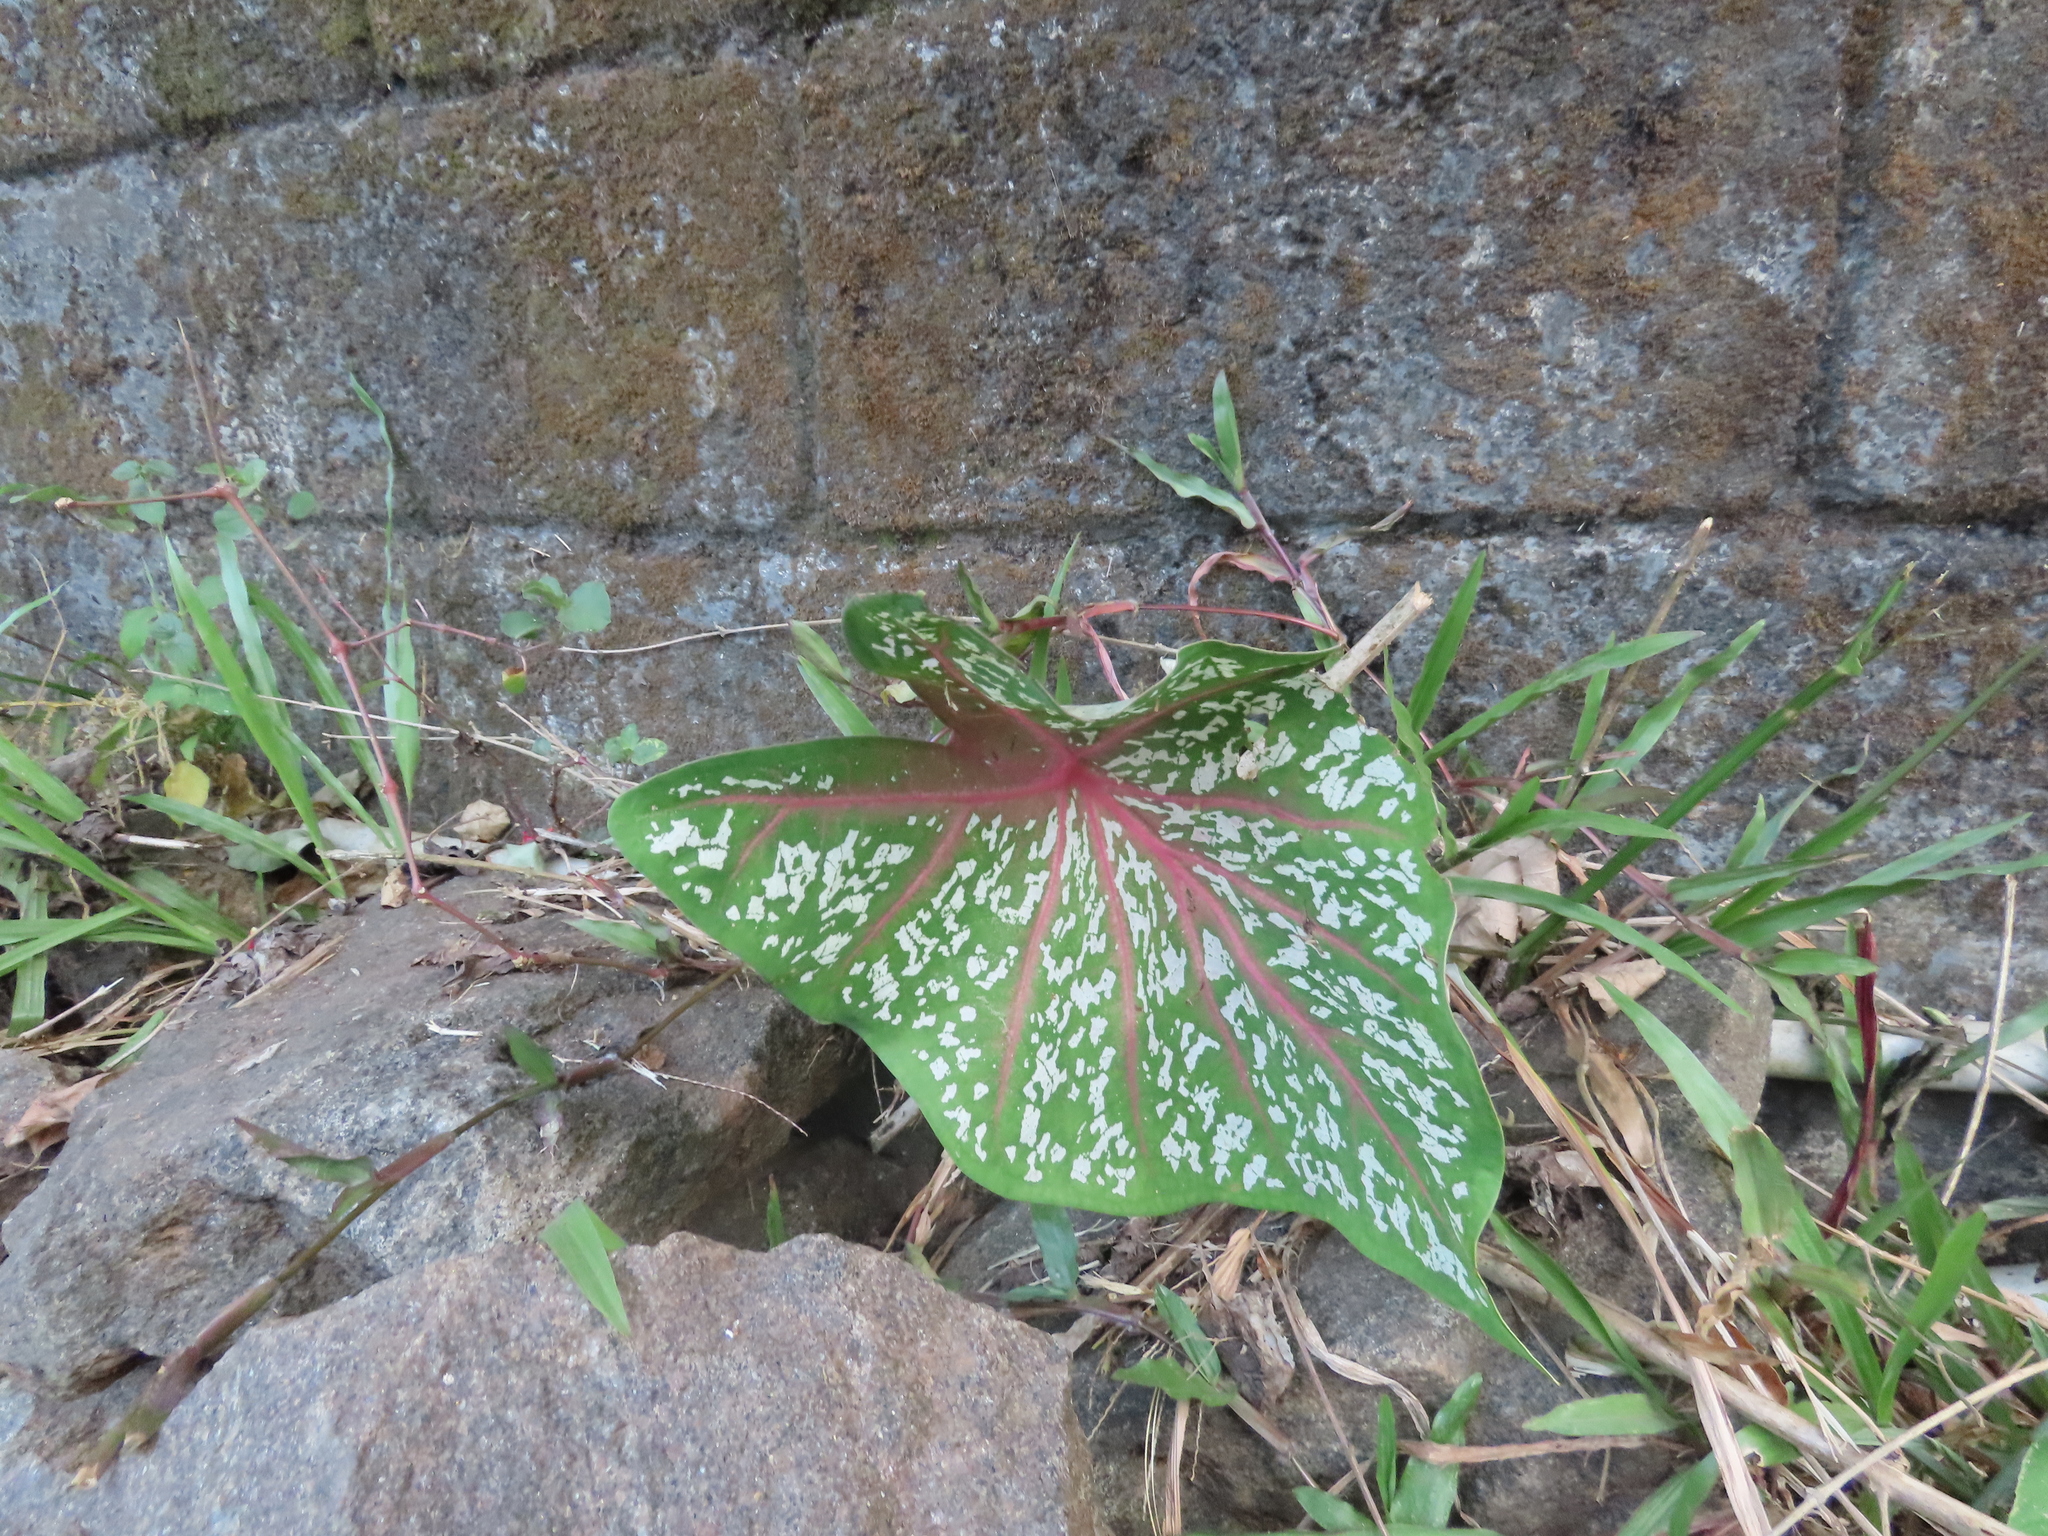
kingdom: Plantae
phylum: Tracheophyta
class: Liliopsida
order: Alismatales
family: Araceae
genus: Caladium
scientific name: Caladium bicolor
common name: Artist's pallet
